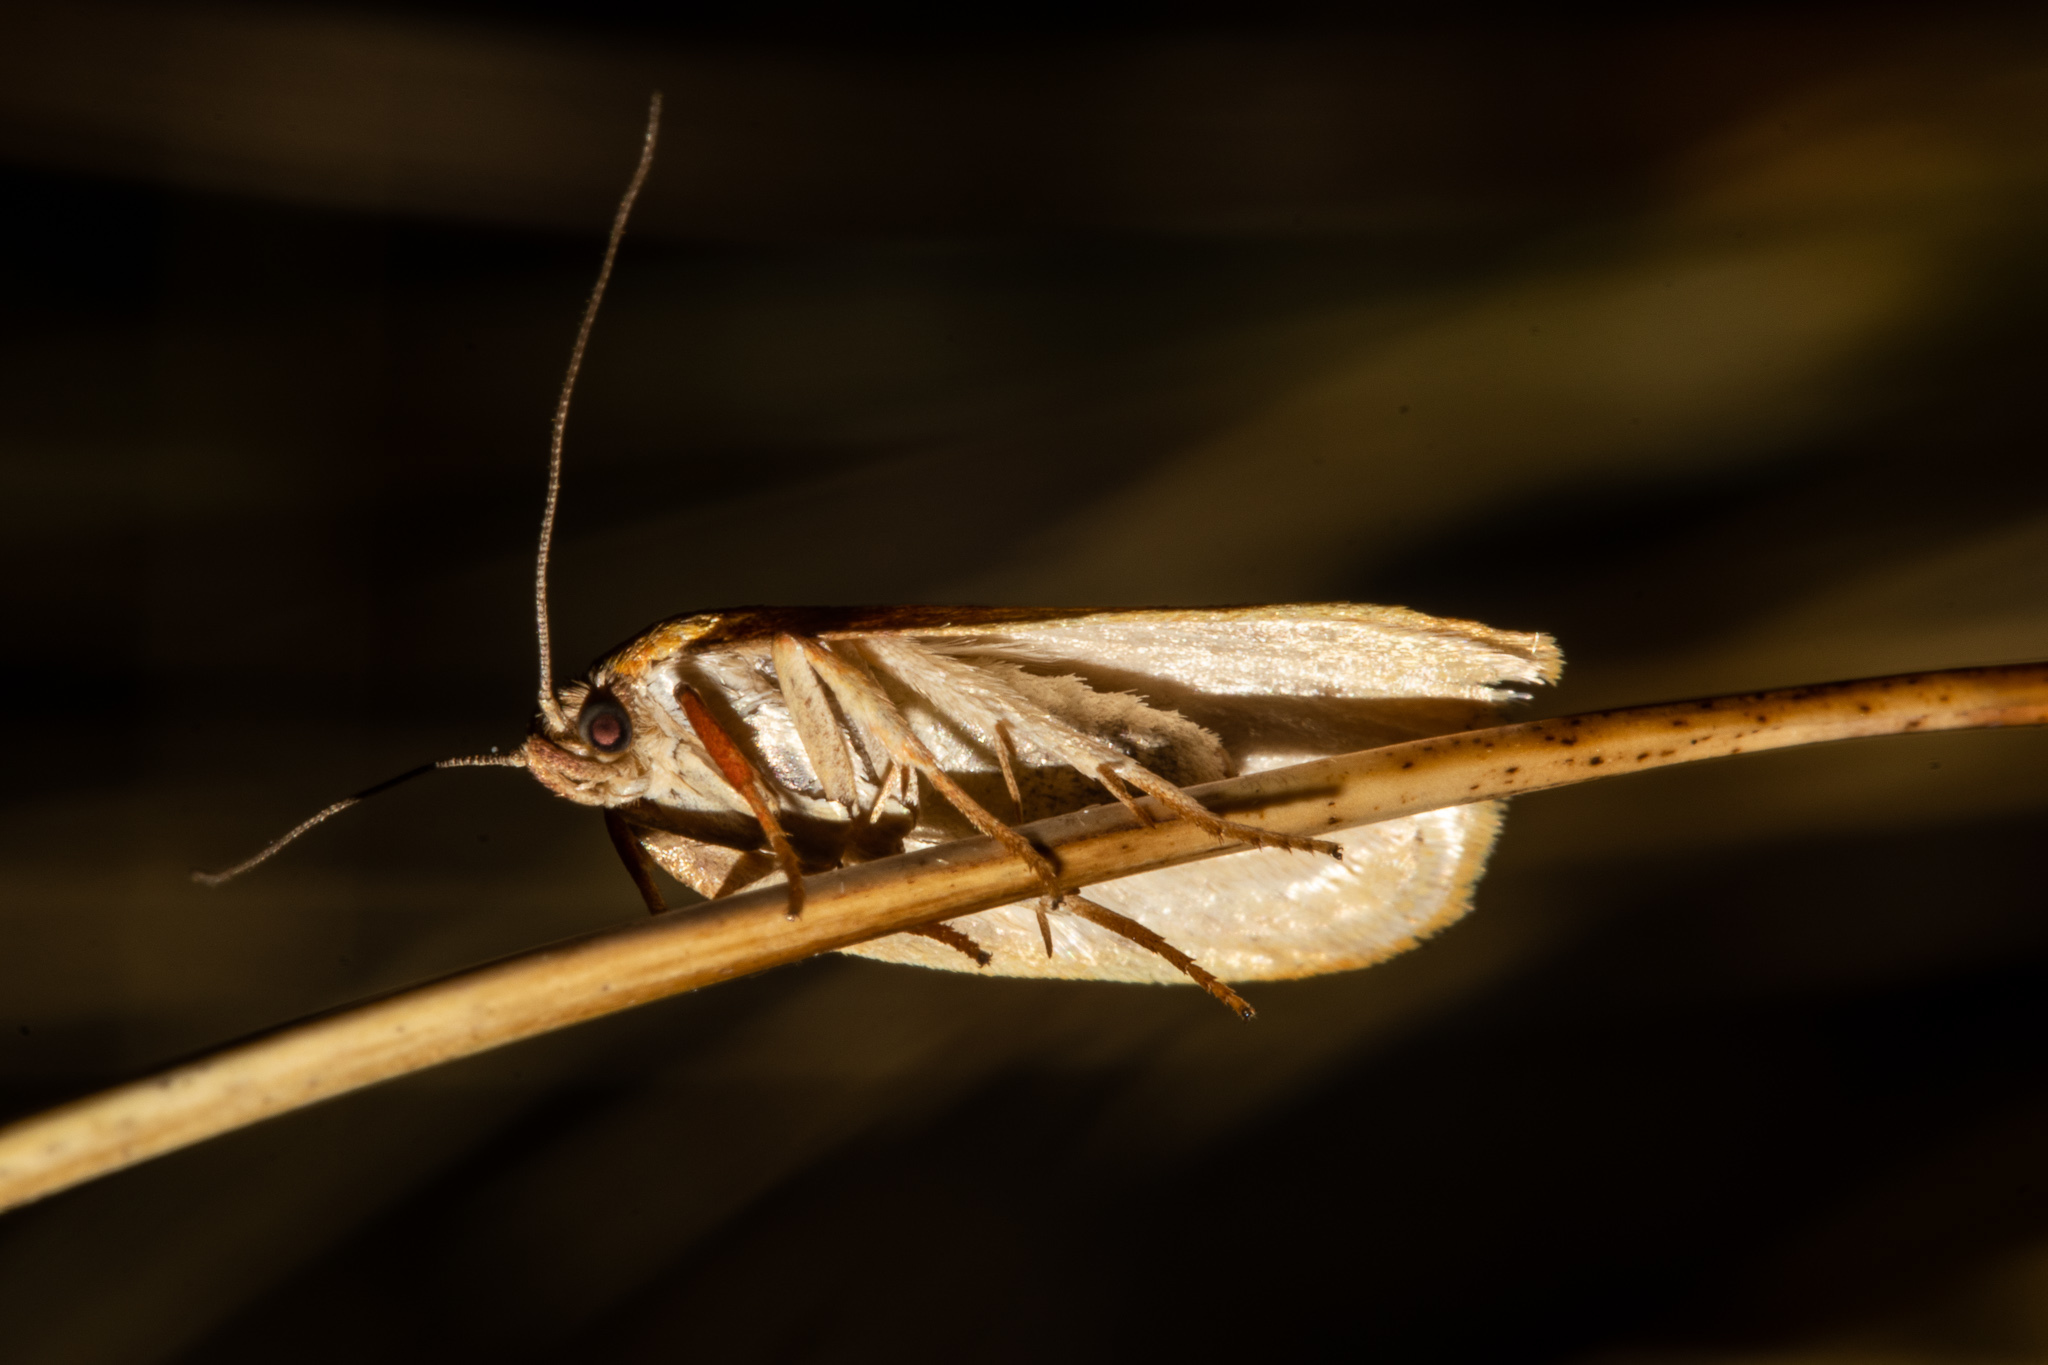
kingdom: Animalia
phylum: Arthropoda
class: Insecta
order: Lepidoptera
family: Oecophoridae
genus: Proteodes
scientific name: Proteodes carnifex
